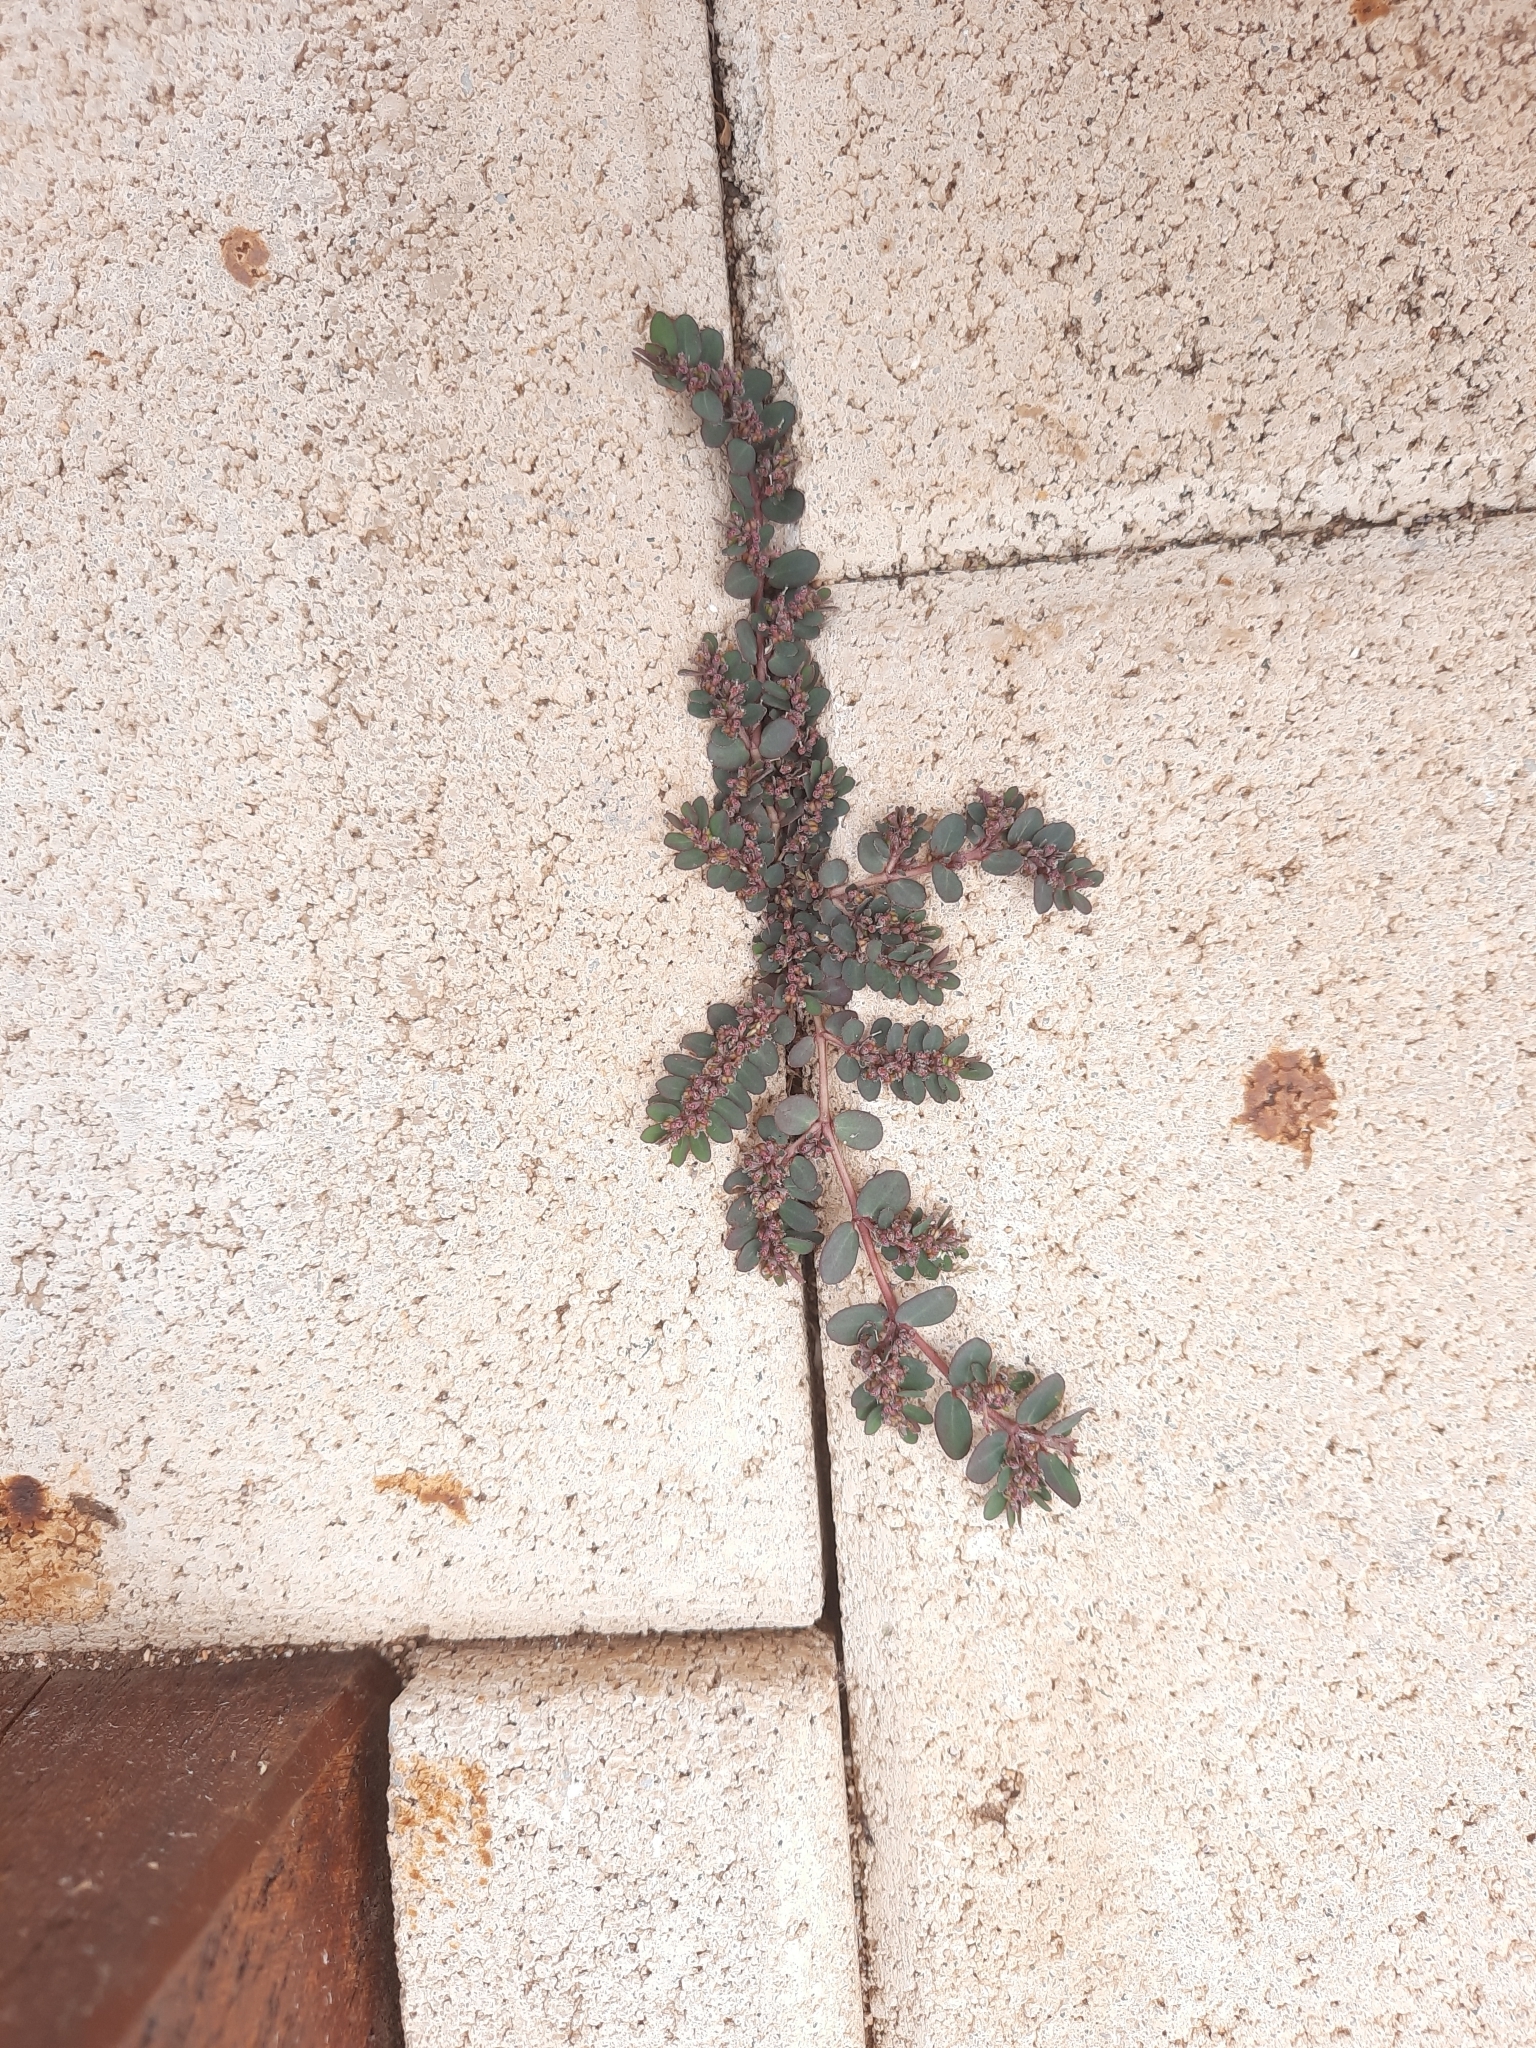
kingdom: Plantae
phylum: Tracheophyta
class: Magnoliopsida
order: Malpighiales
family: Euphorbiaceae
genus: Euphorbia
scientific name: Euphorbia prostrata
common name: Prostrate sandmat
